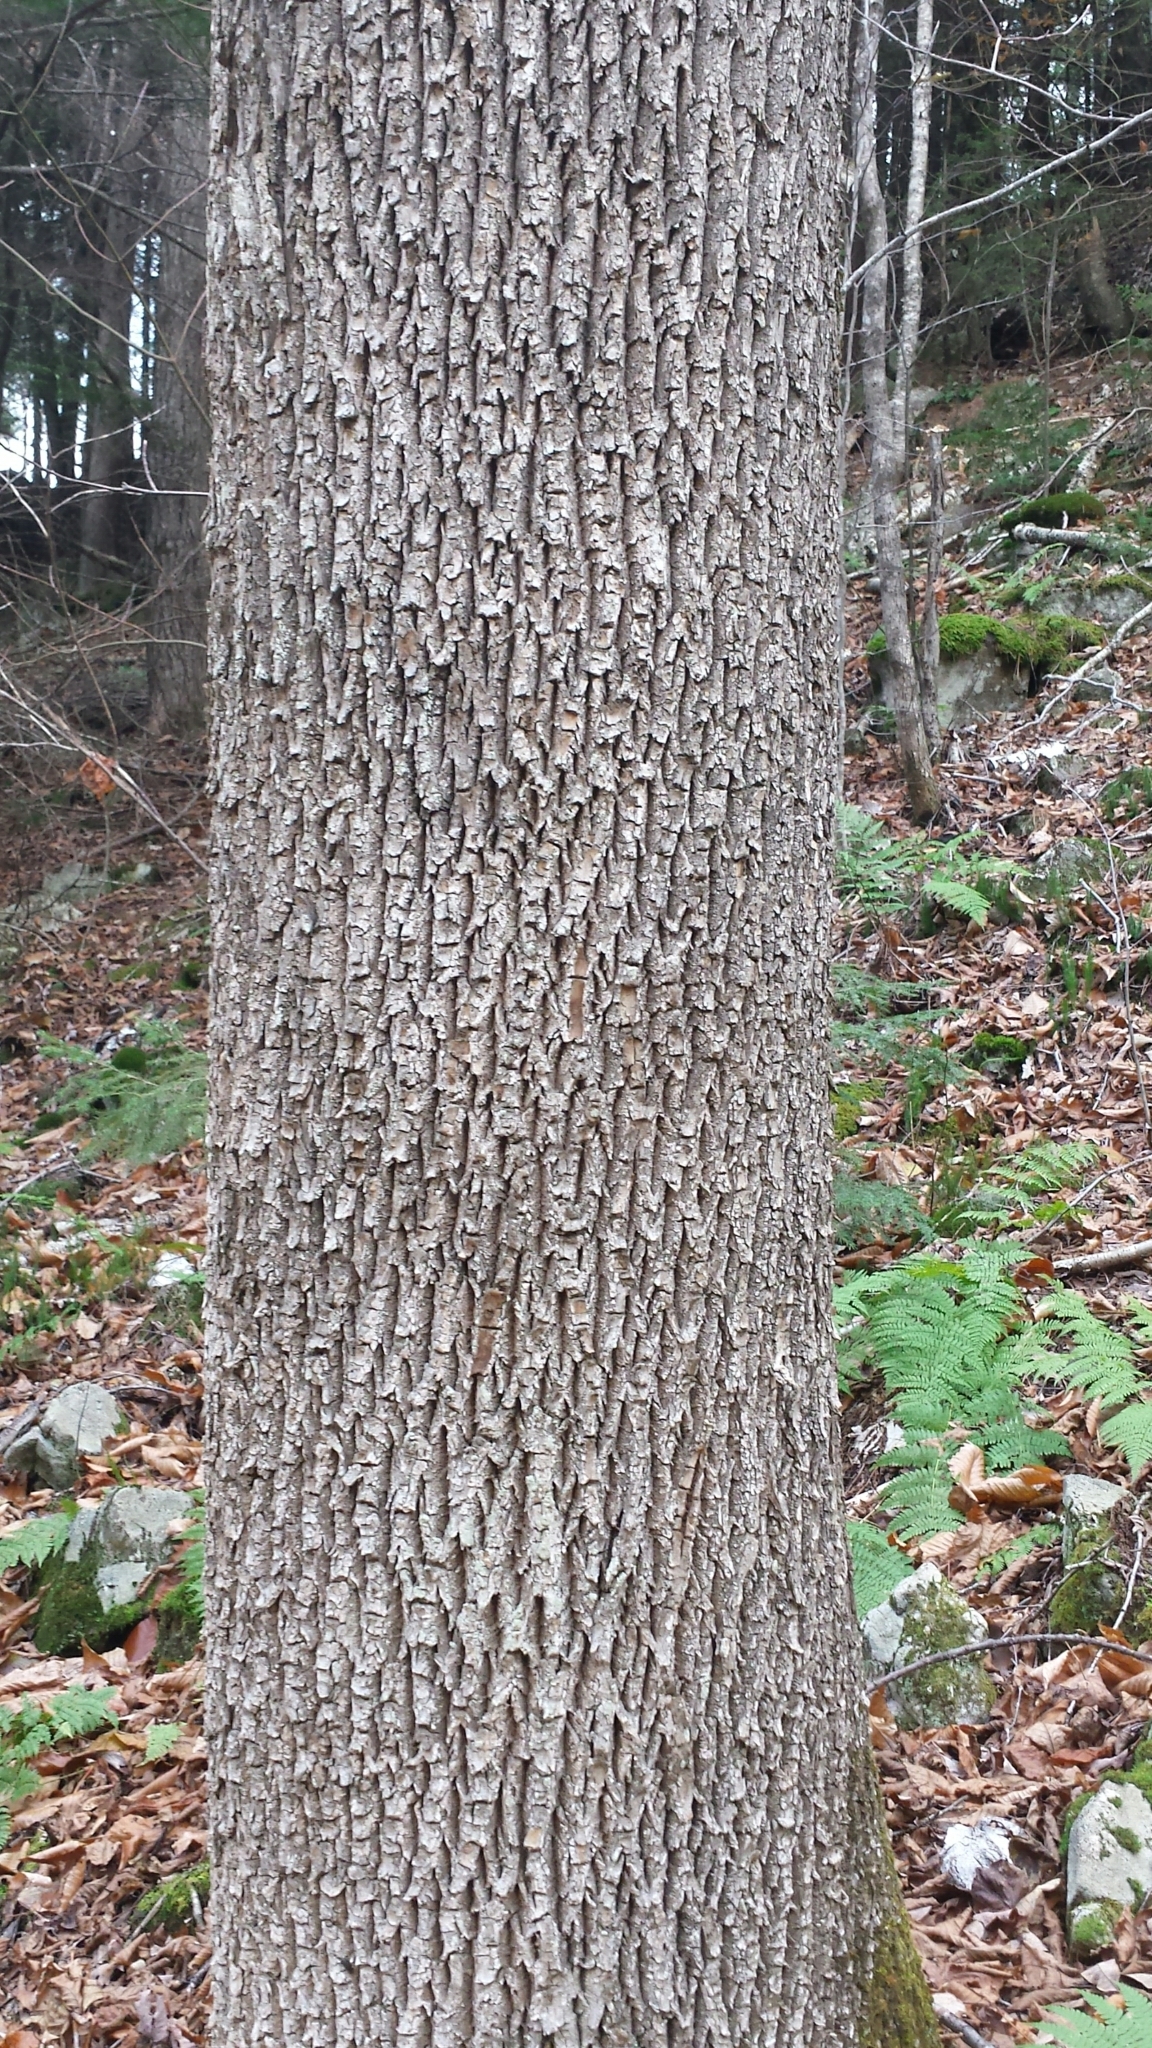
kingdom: Plantae
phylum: Tracheophyta
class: Magnoliopsida
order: Lamiales
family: Oleaceae
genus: Fraxinus
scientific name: Fraxinus americana
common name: White ash
